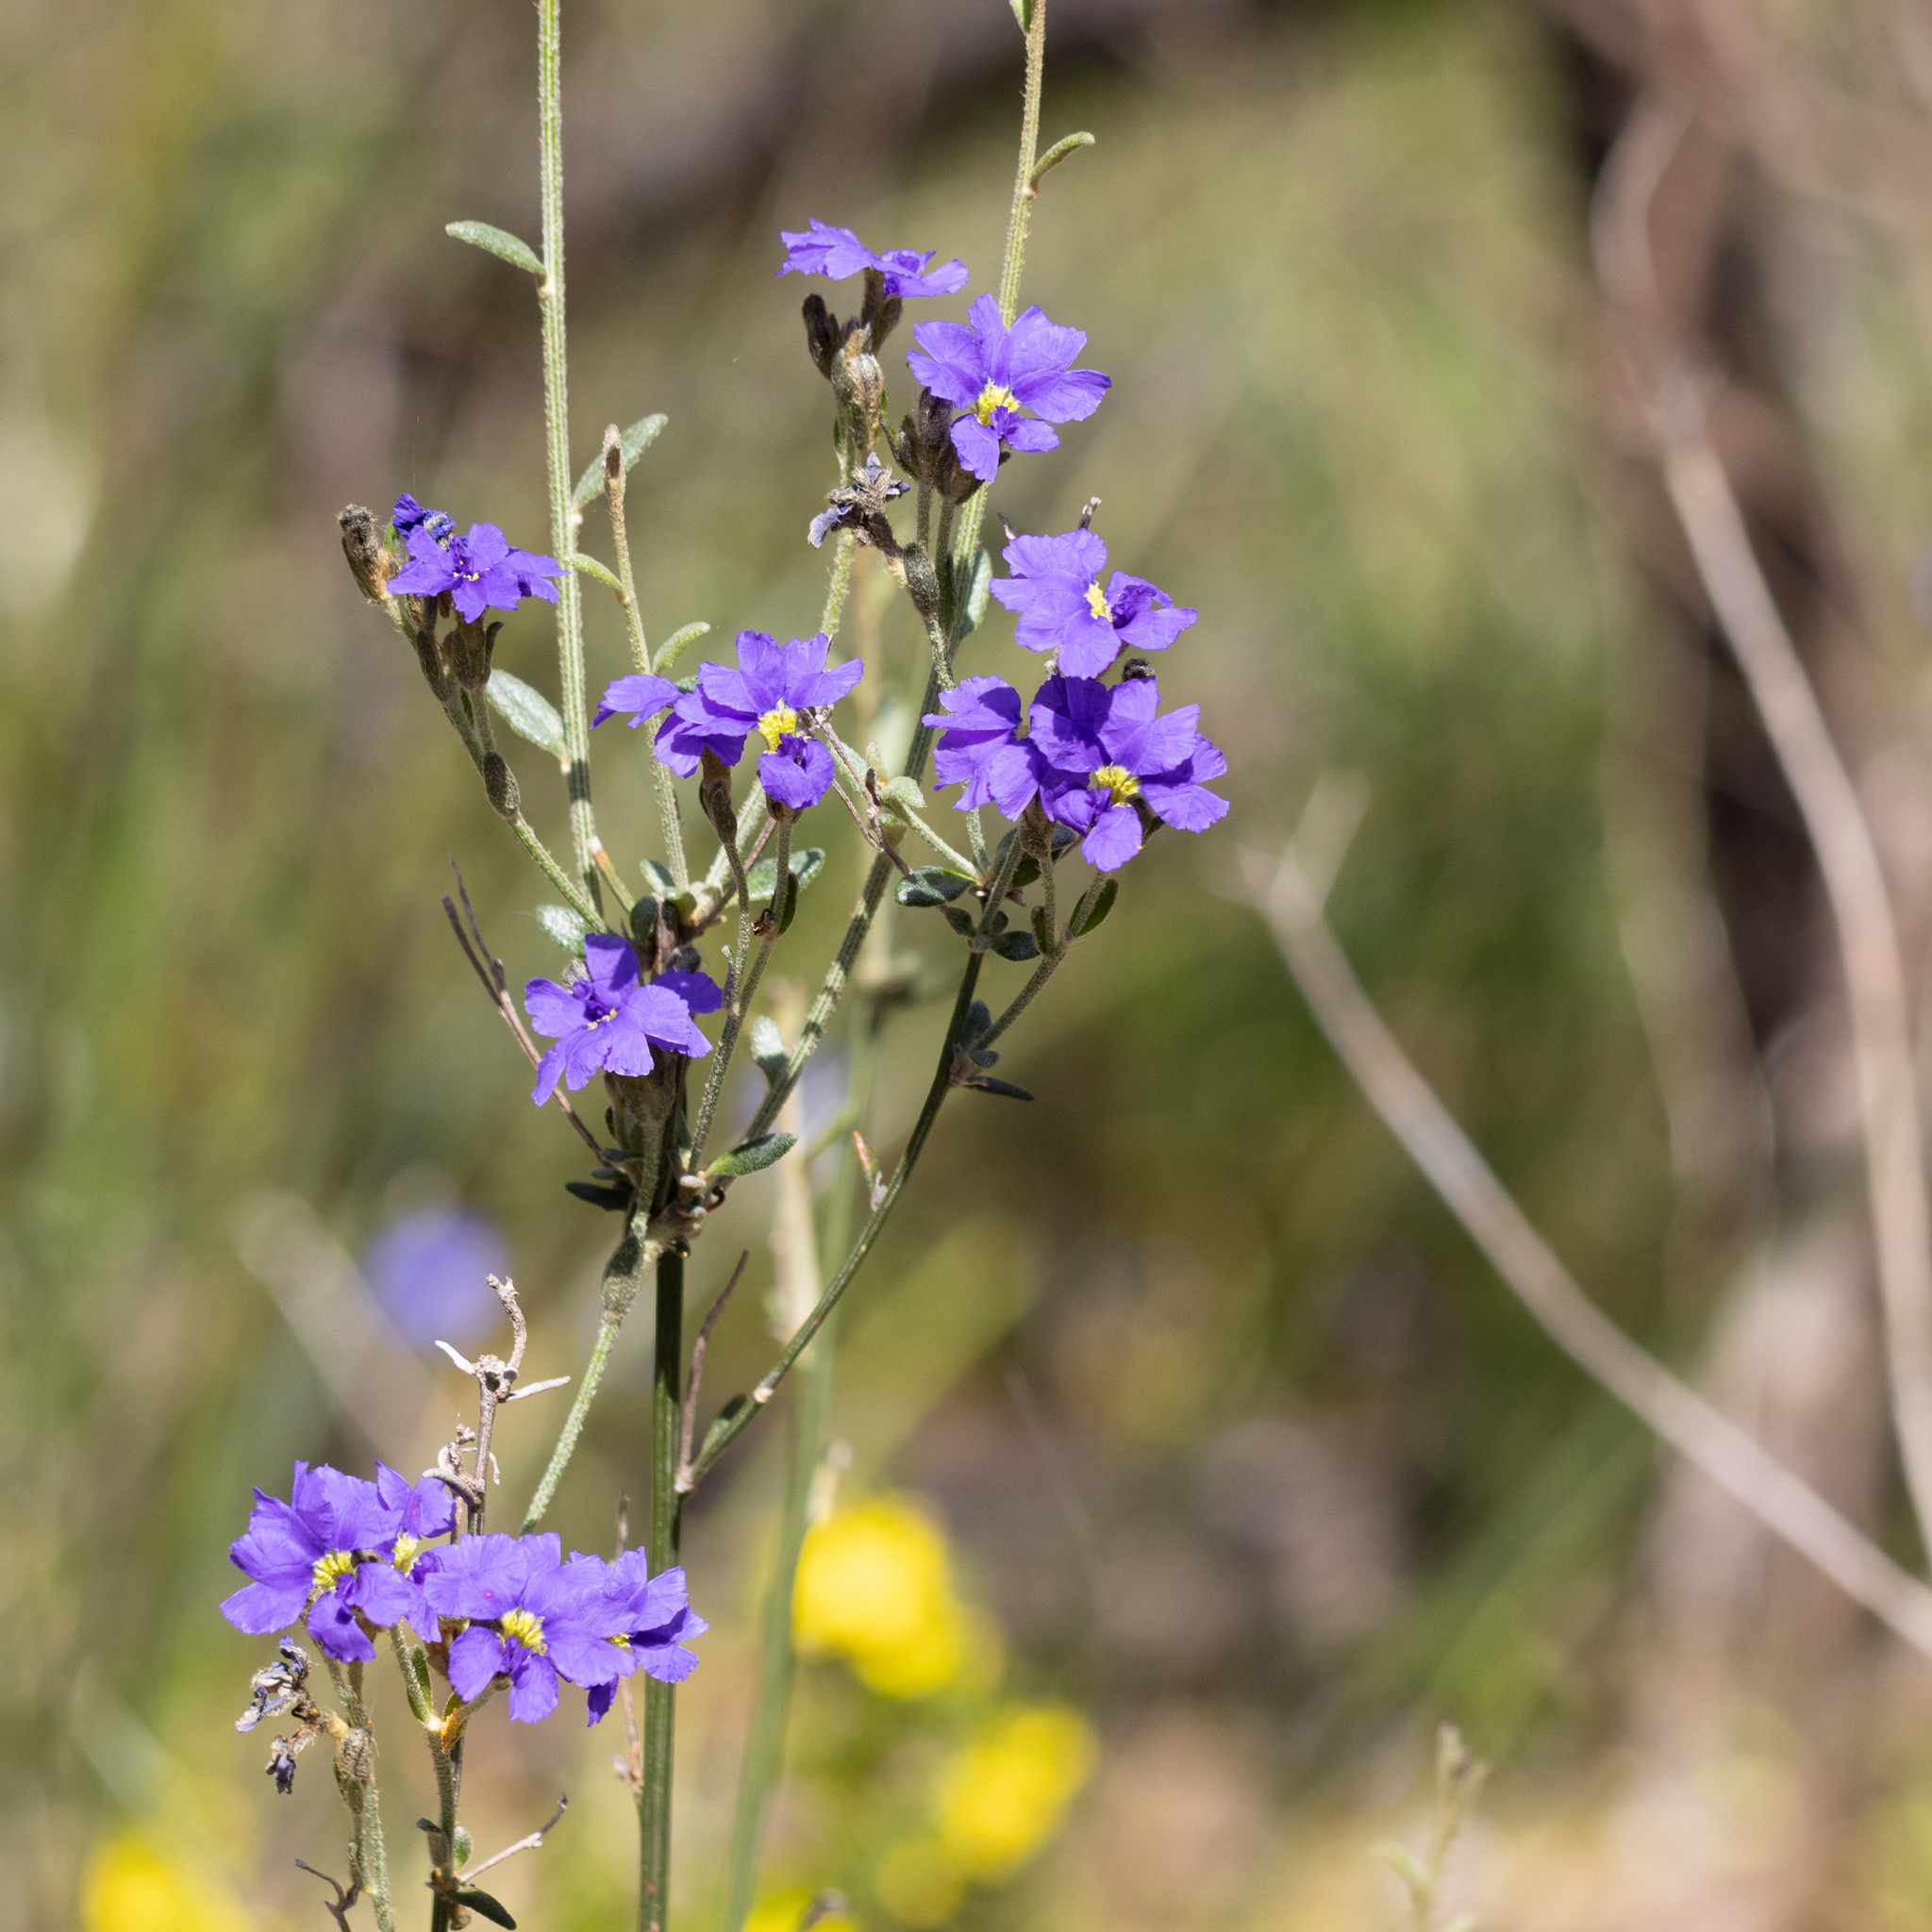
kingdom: Plantae
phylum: Tracheophyta
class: Magnoliopsida
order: Asterales
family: Goodeniaceae
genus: Dampiera
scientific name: Dampiera dysantha
